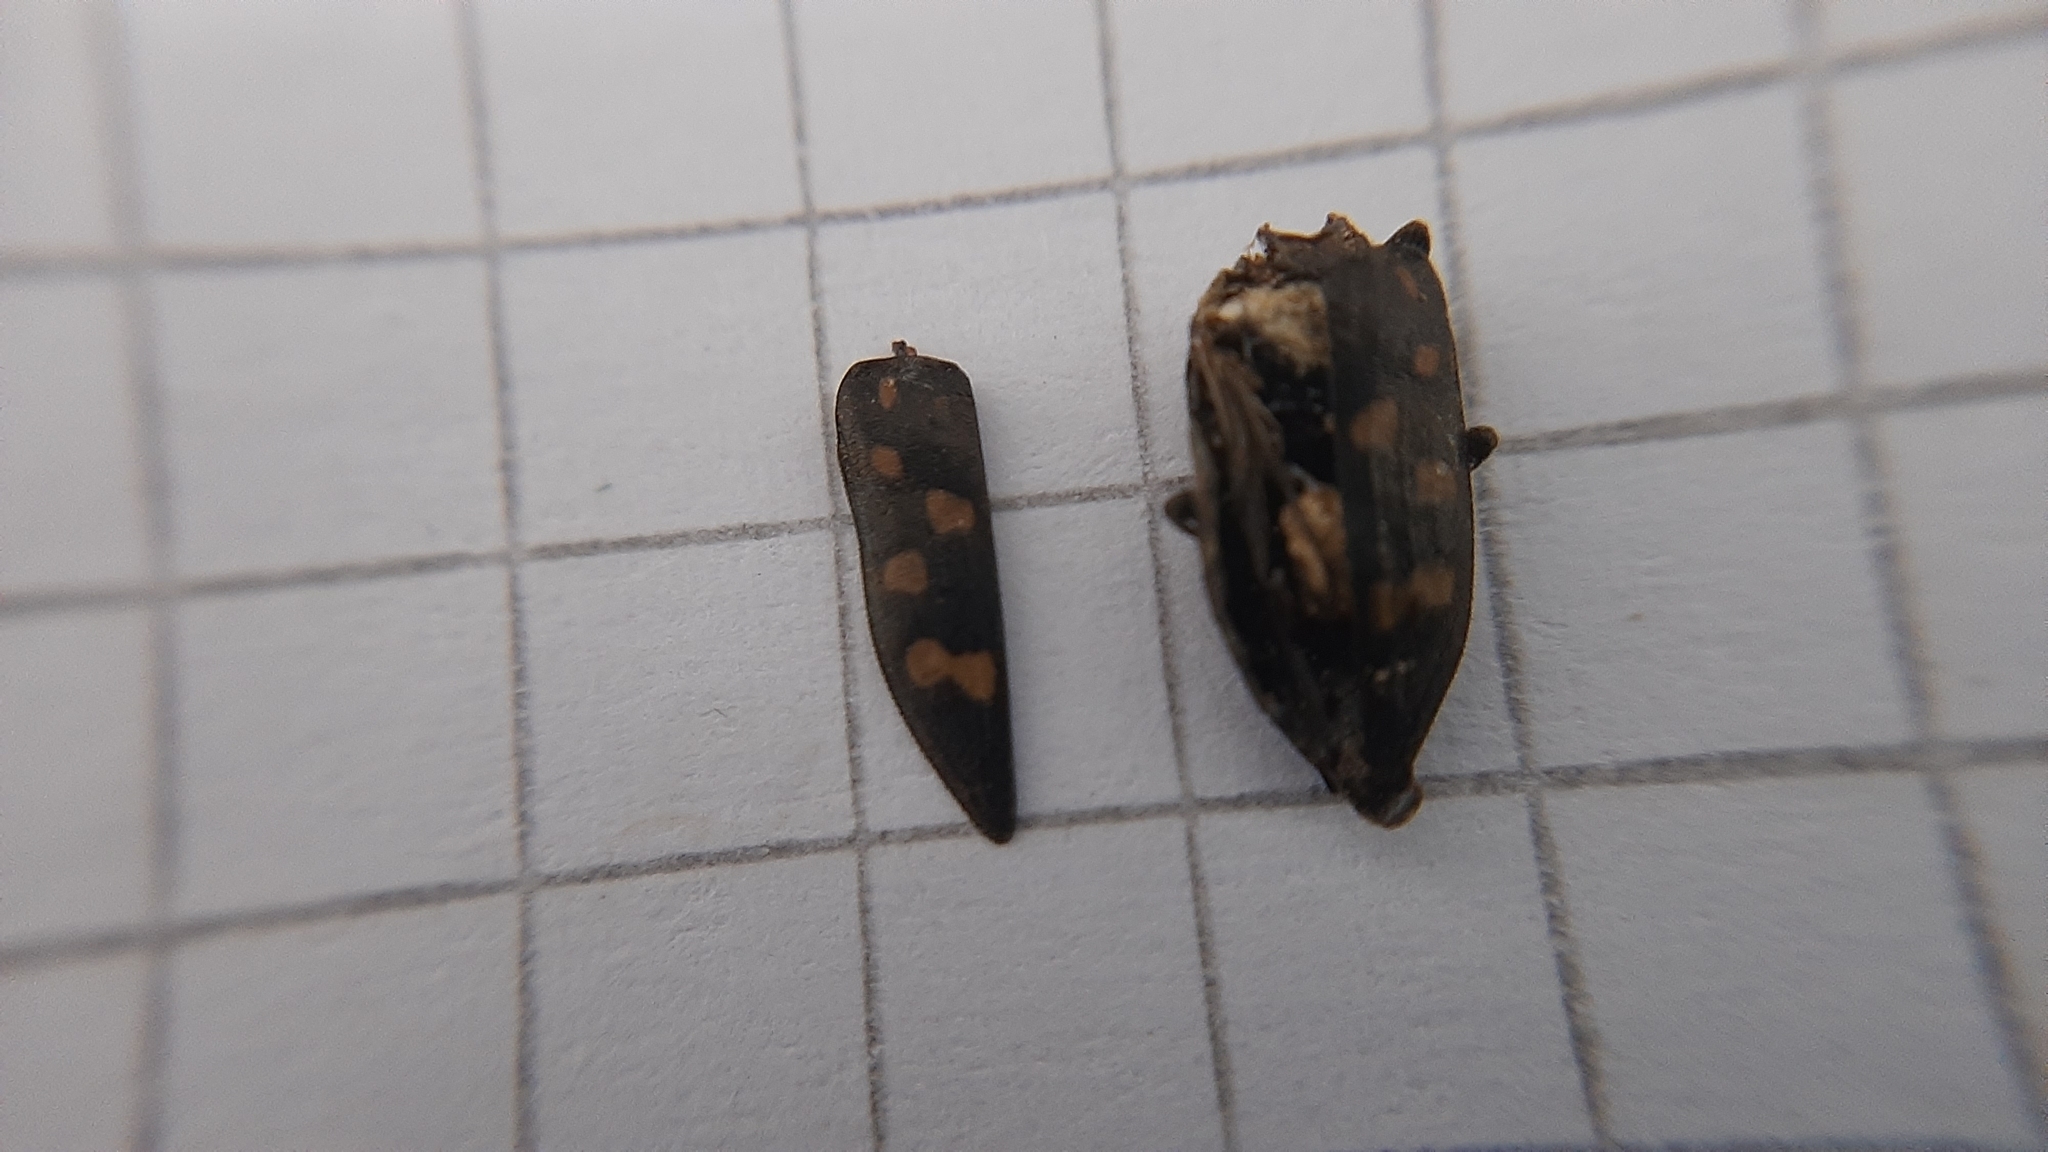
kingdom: Animalia
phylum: Arthropoda
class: Insecta
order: Coleoptera
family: Buprestidae
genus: Trachypteris
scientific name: Trachypteris picta
